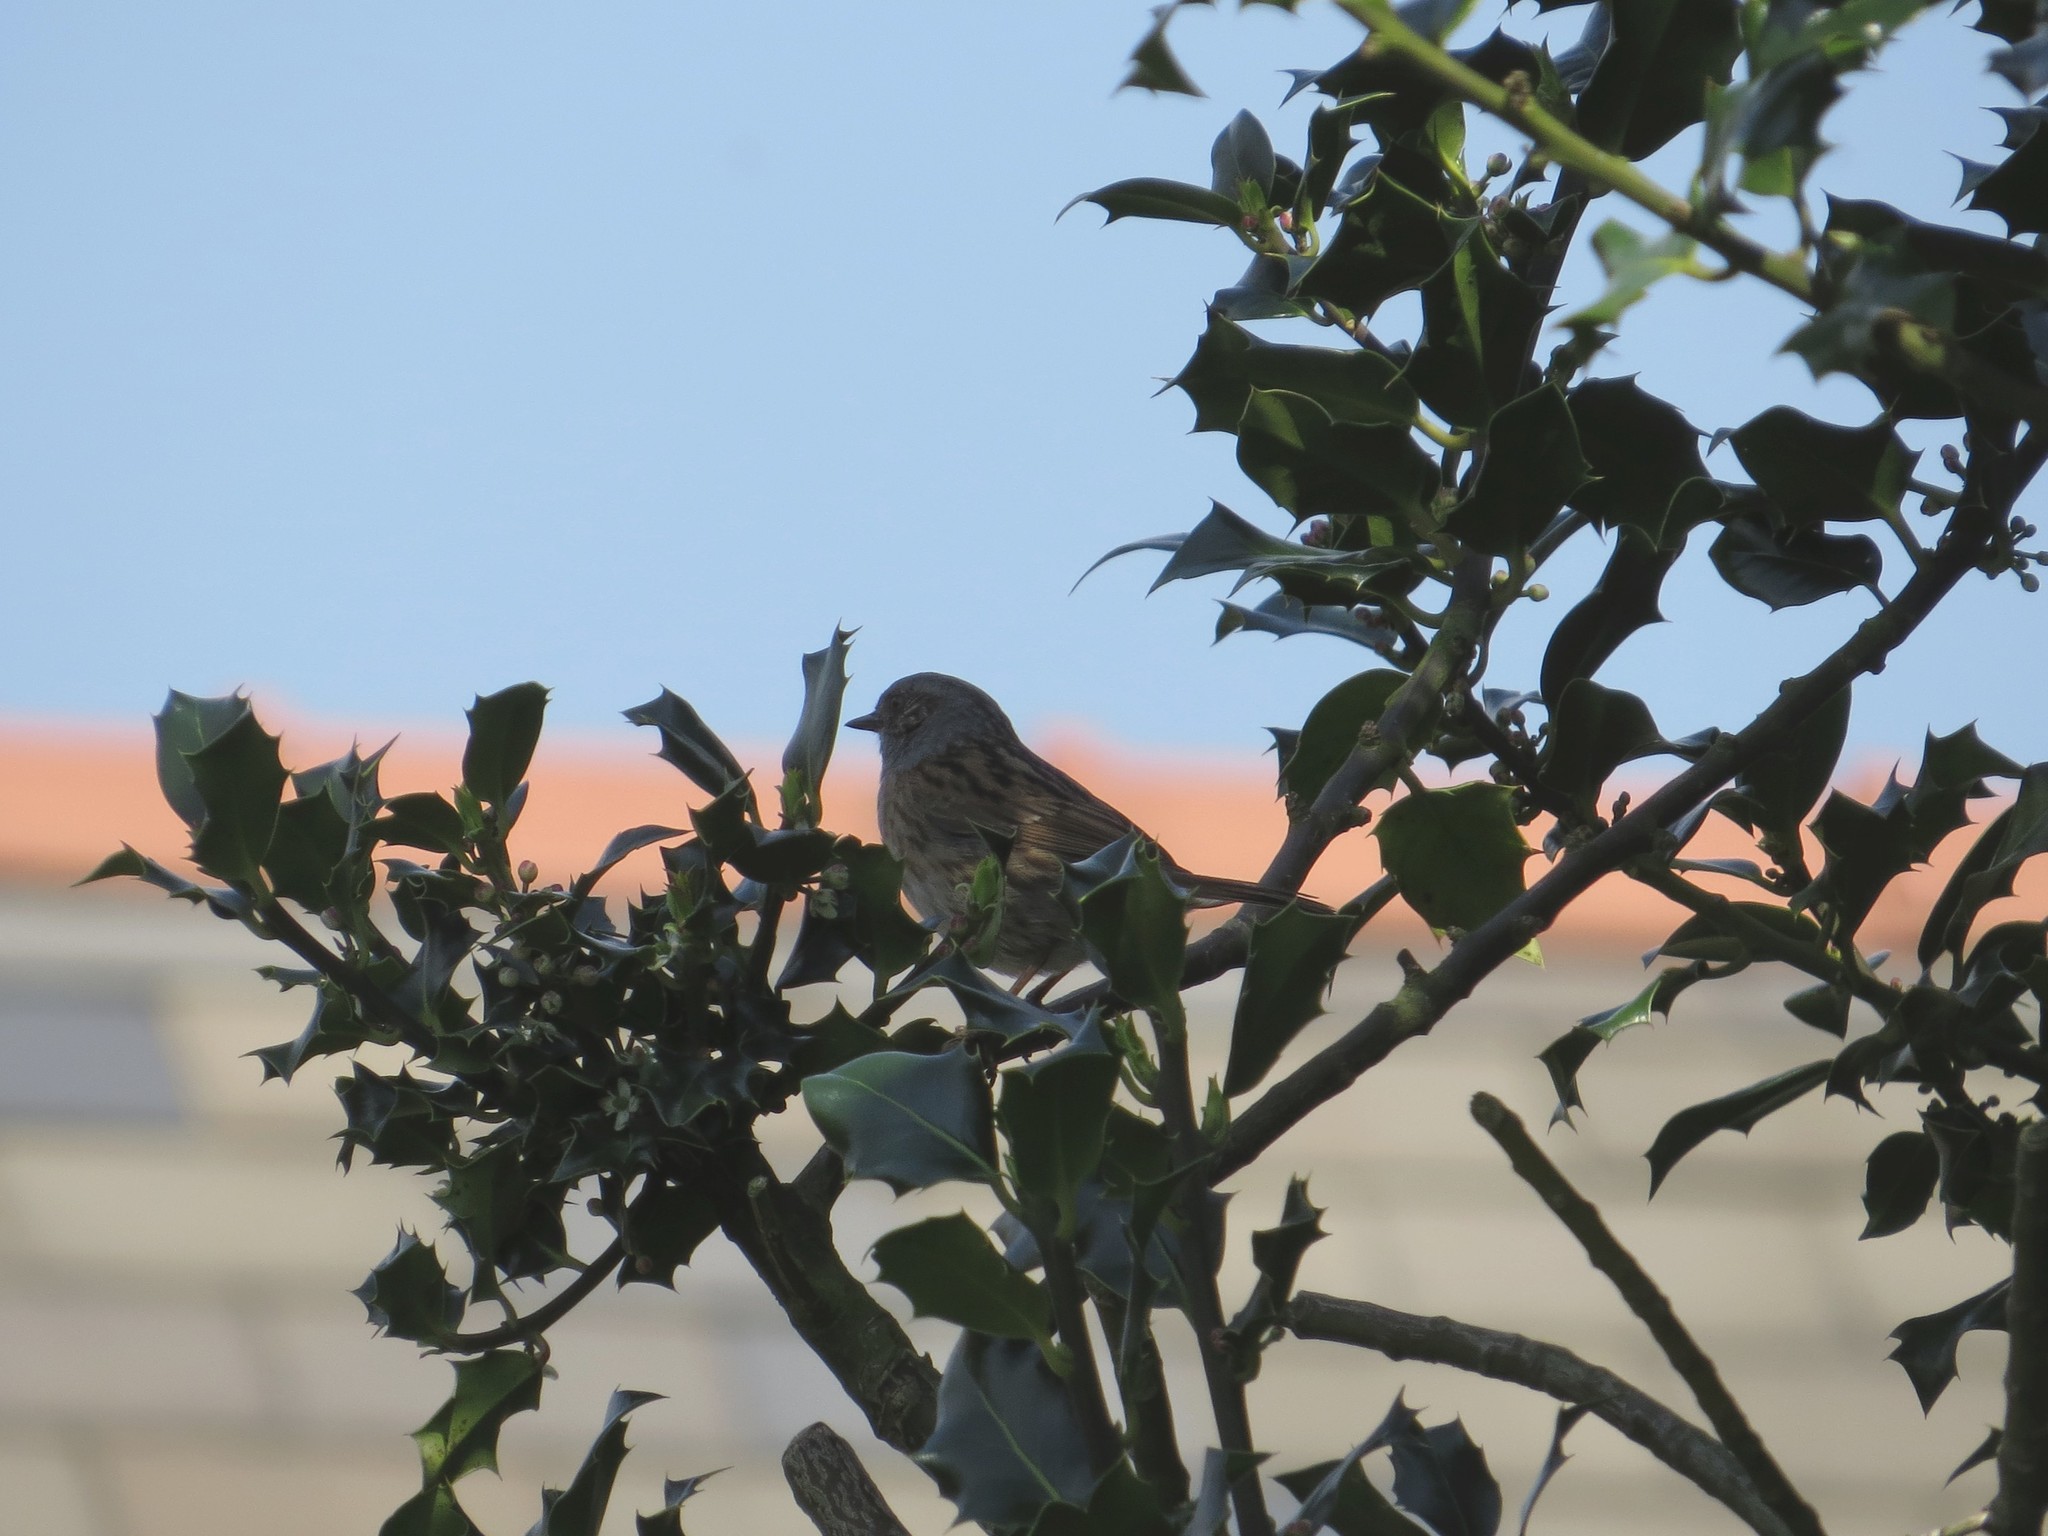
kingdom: Animalia
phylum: Chordata
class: Aves
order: Passeriformes
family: Prunellidae
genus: Prunella
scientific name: Prunella modularis
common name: Dunnock
